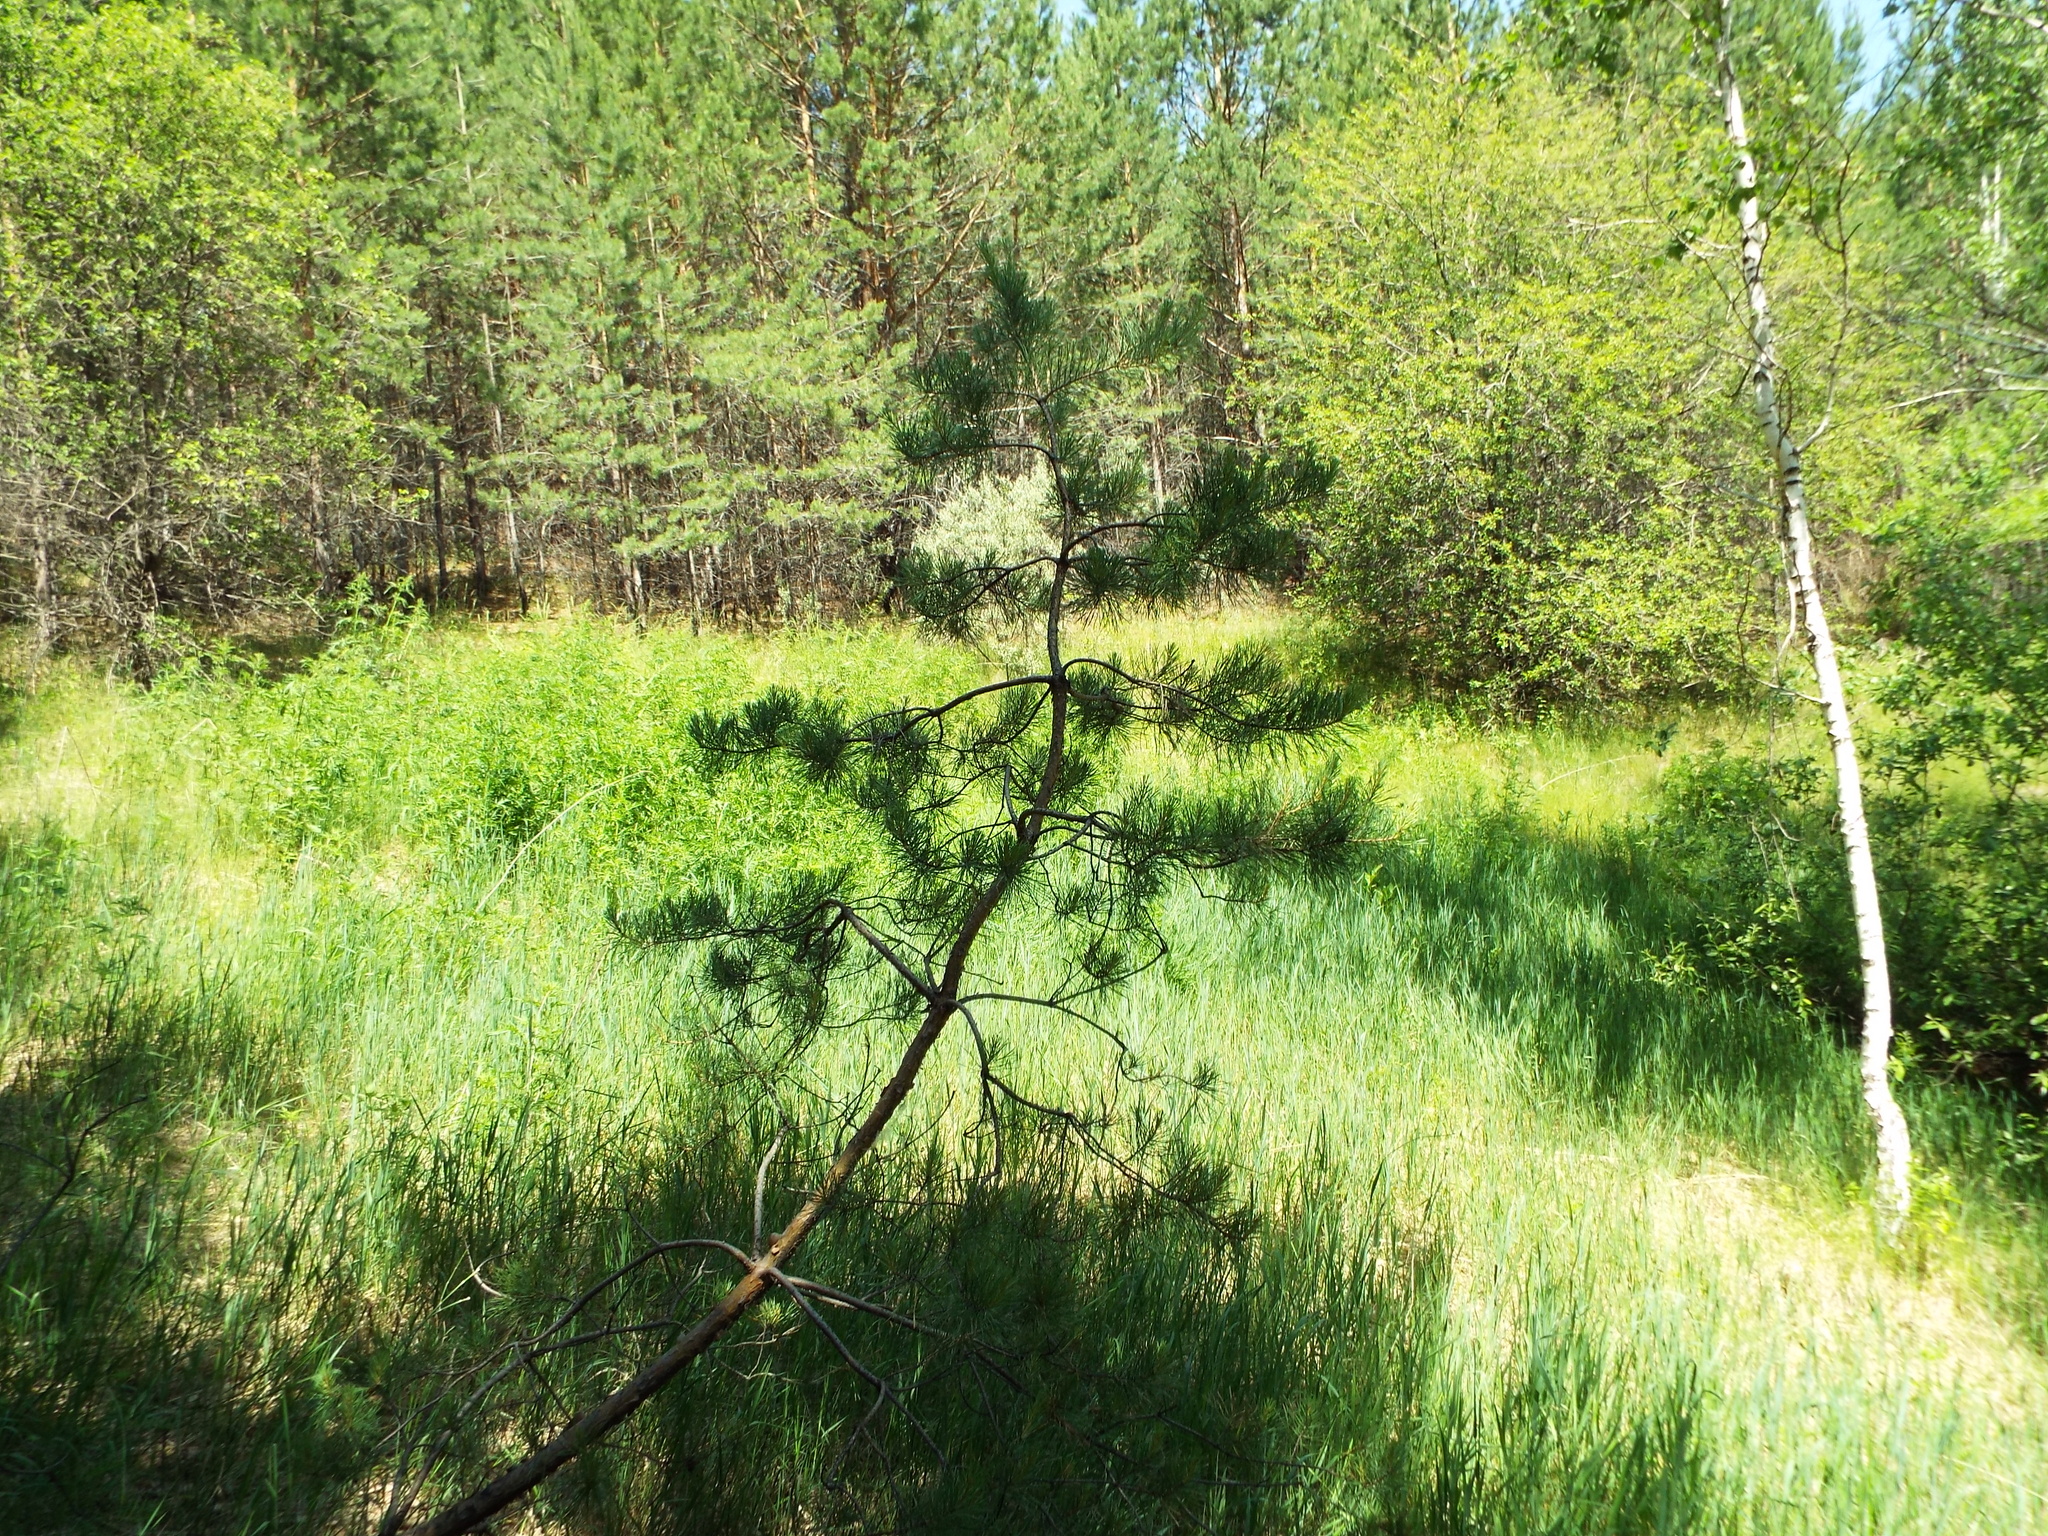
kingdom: Plantae
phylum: Tracheophyta
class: Pinopsida
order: Pinales
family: Pinaceae
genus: Pinus
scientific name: Pinus sylvestris
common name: Scots pine
